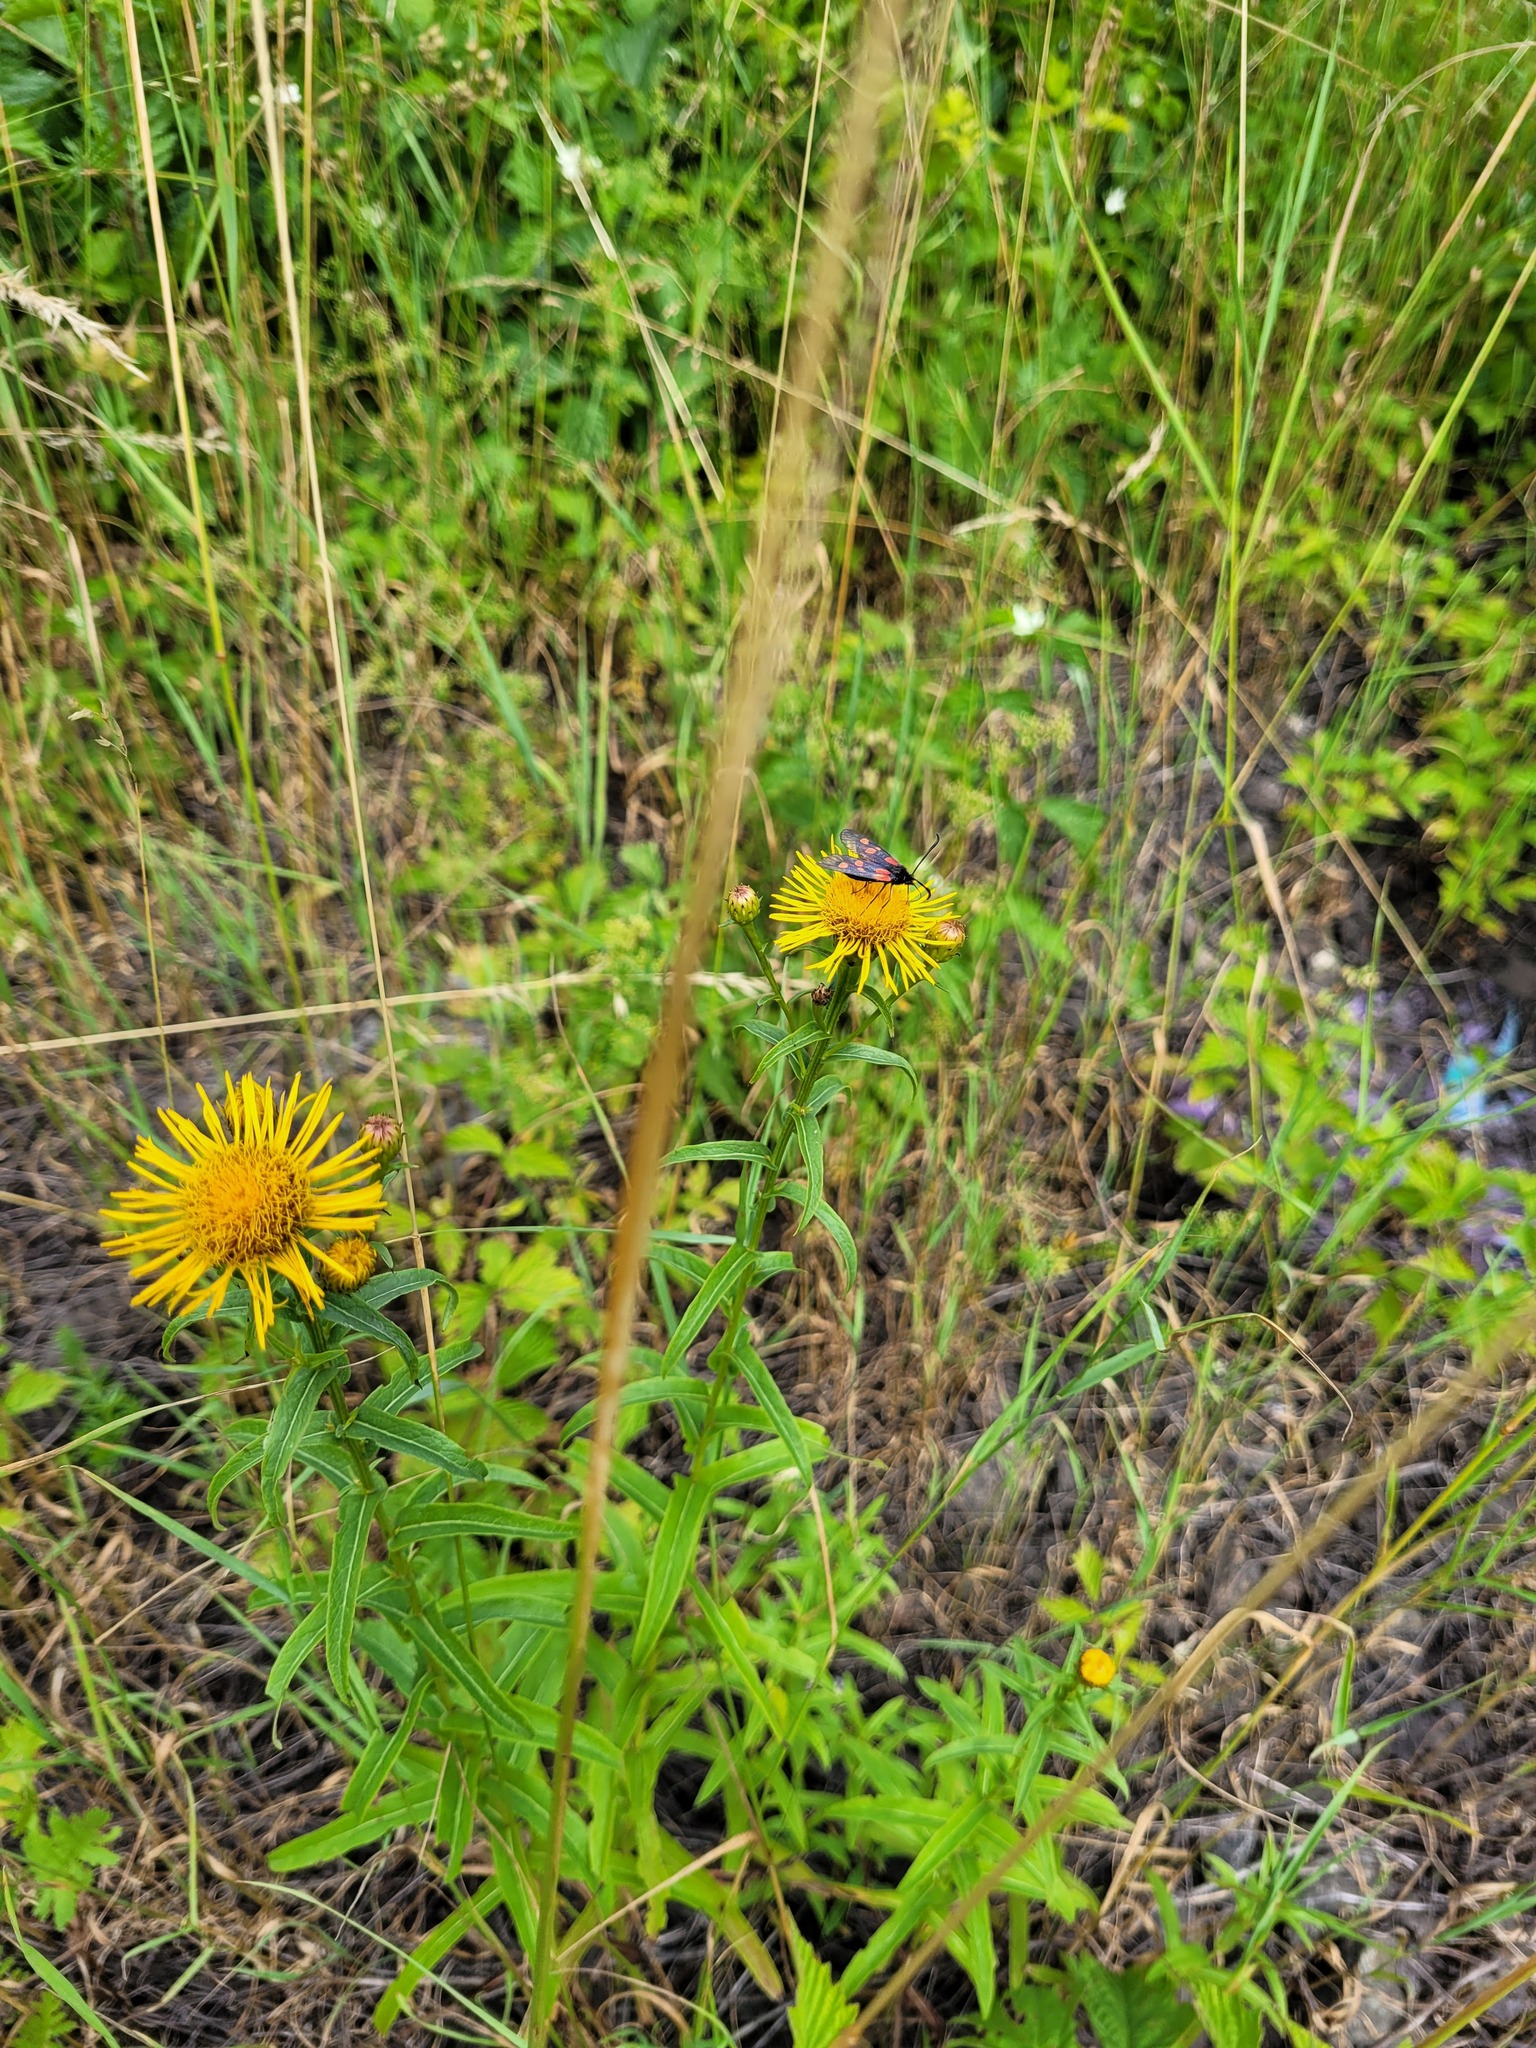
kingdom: Plantae
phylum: Tracheophyta
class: Magnoliopsida
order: Asterales
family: Asteraceae
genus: Pentanema
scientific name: Pentanema salicinum
